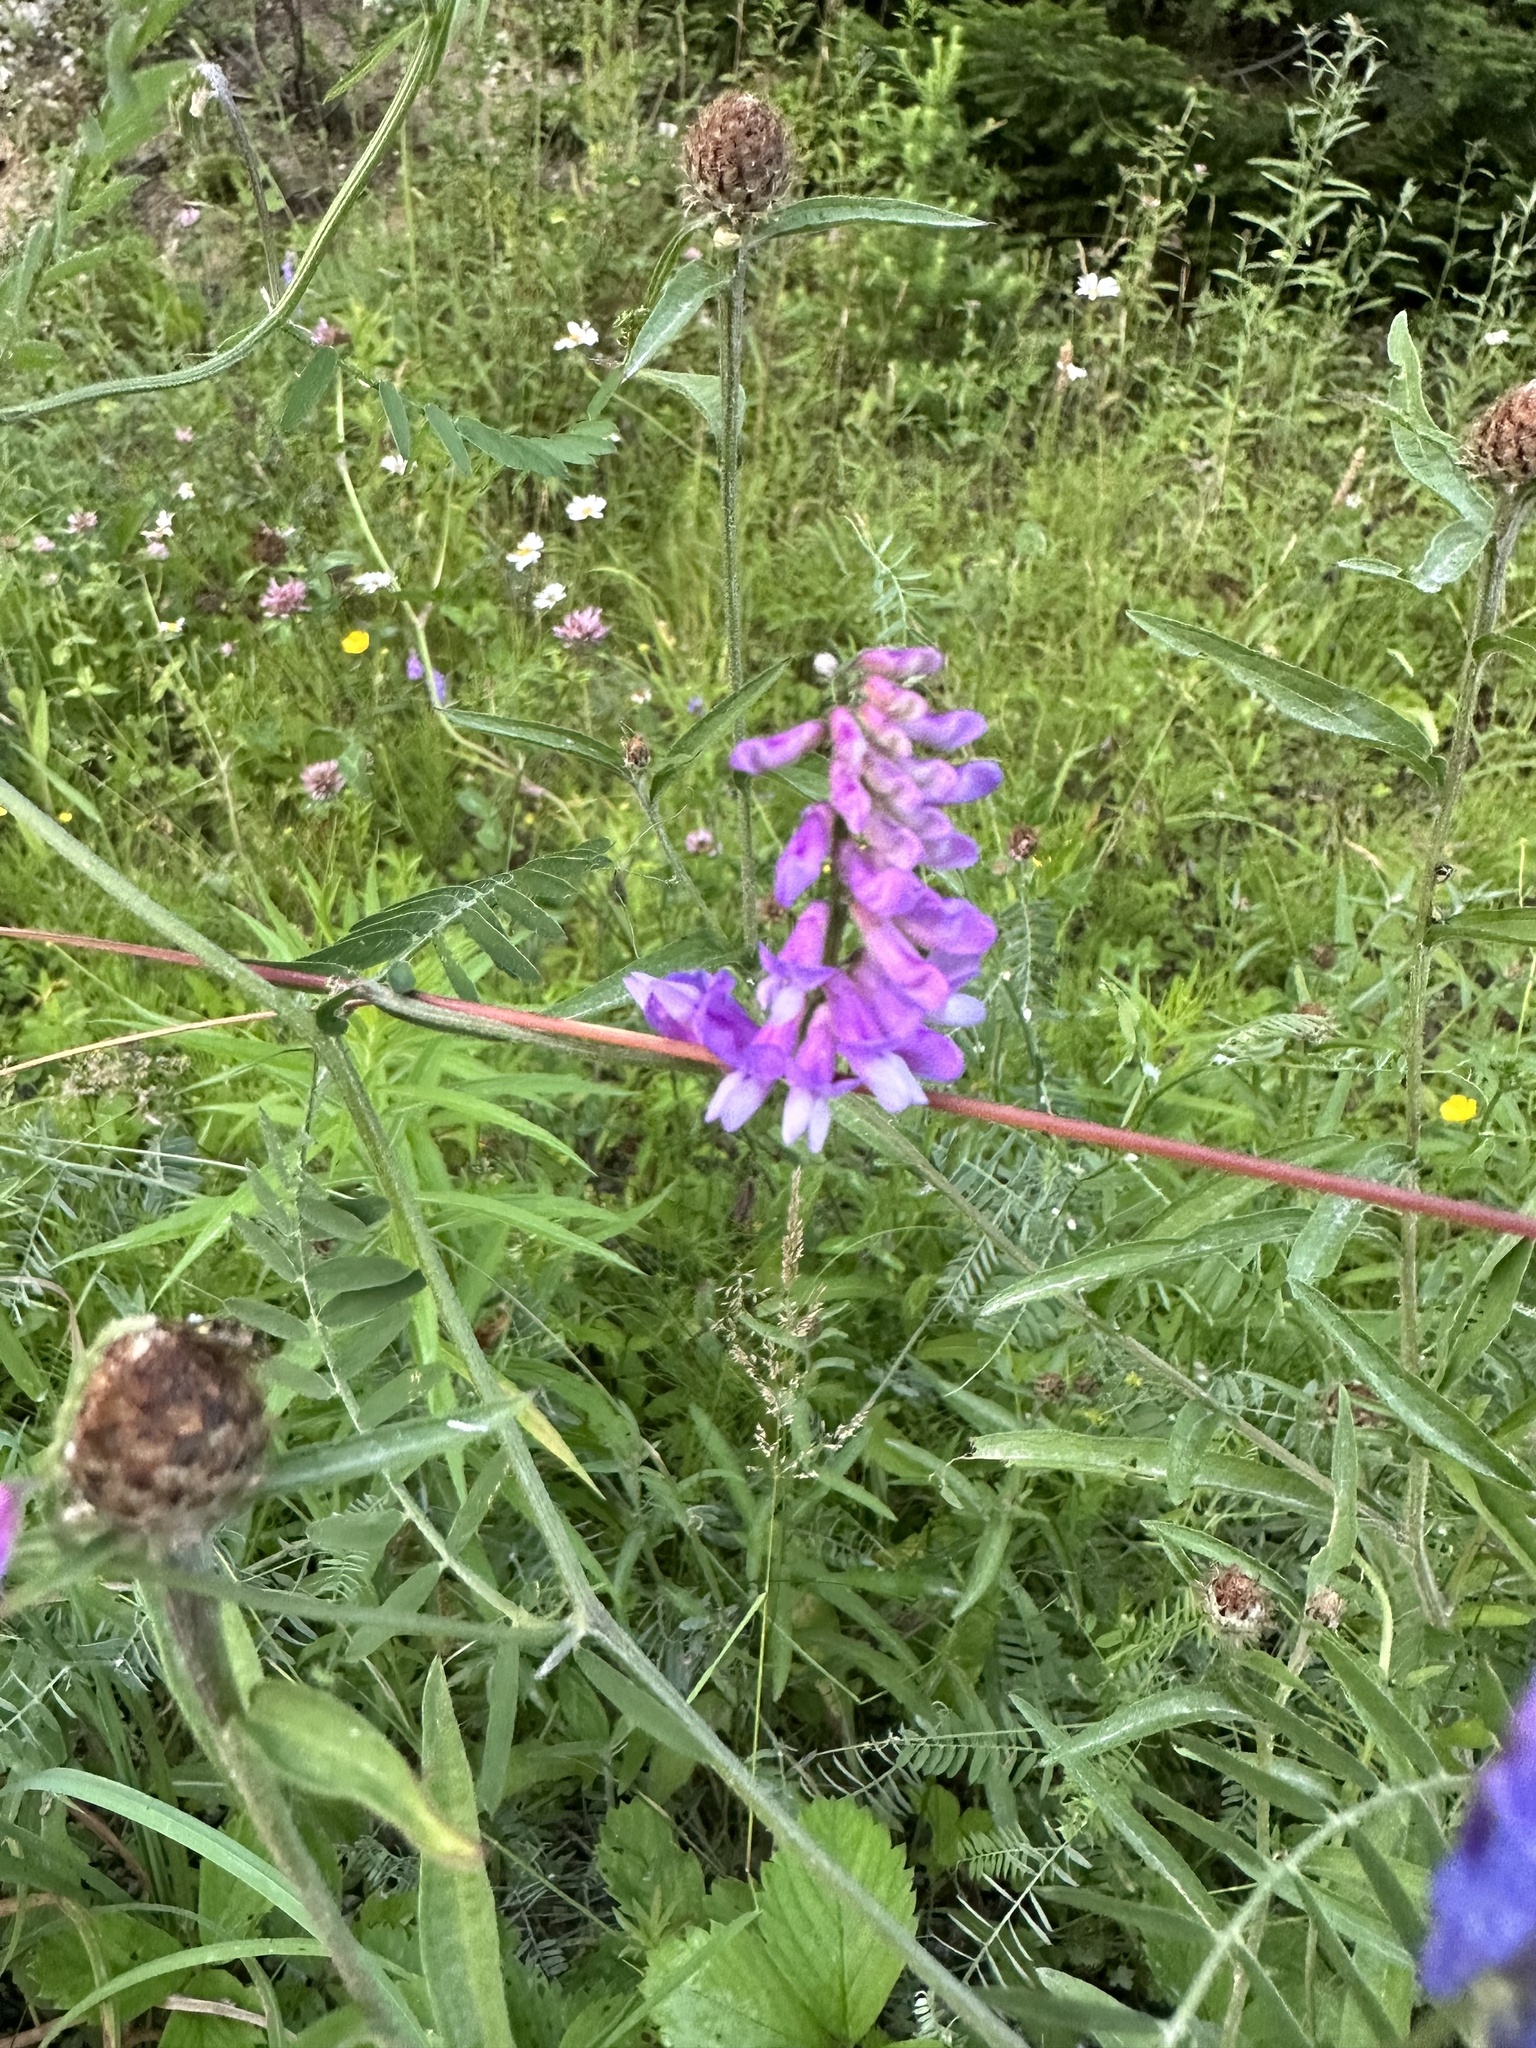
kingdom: Plantae
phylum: Tracheophyta
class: Magnoliopsida
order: Fabales
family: Fabaceae
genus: Vicia
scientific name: Vicia cracca
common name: Bird vetch
